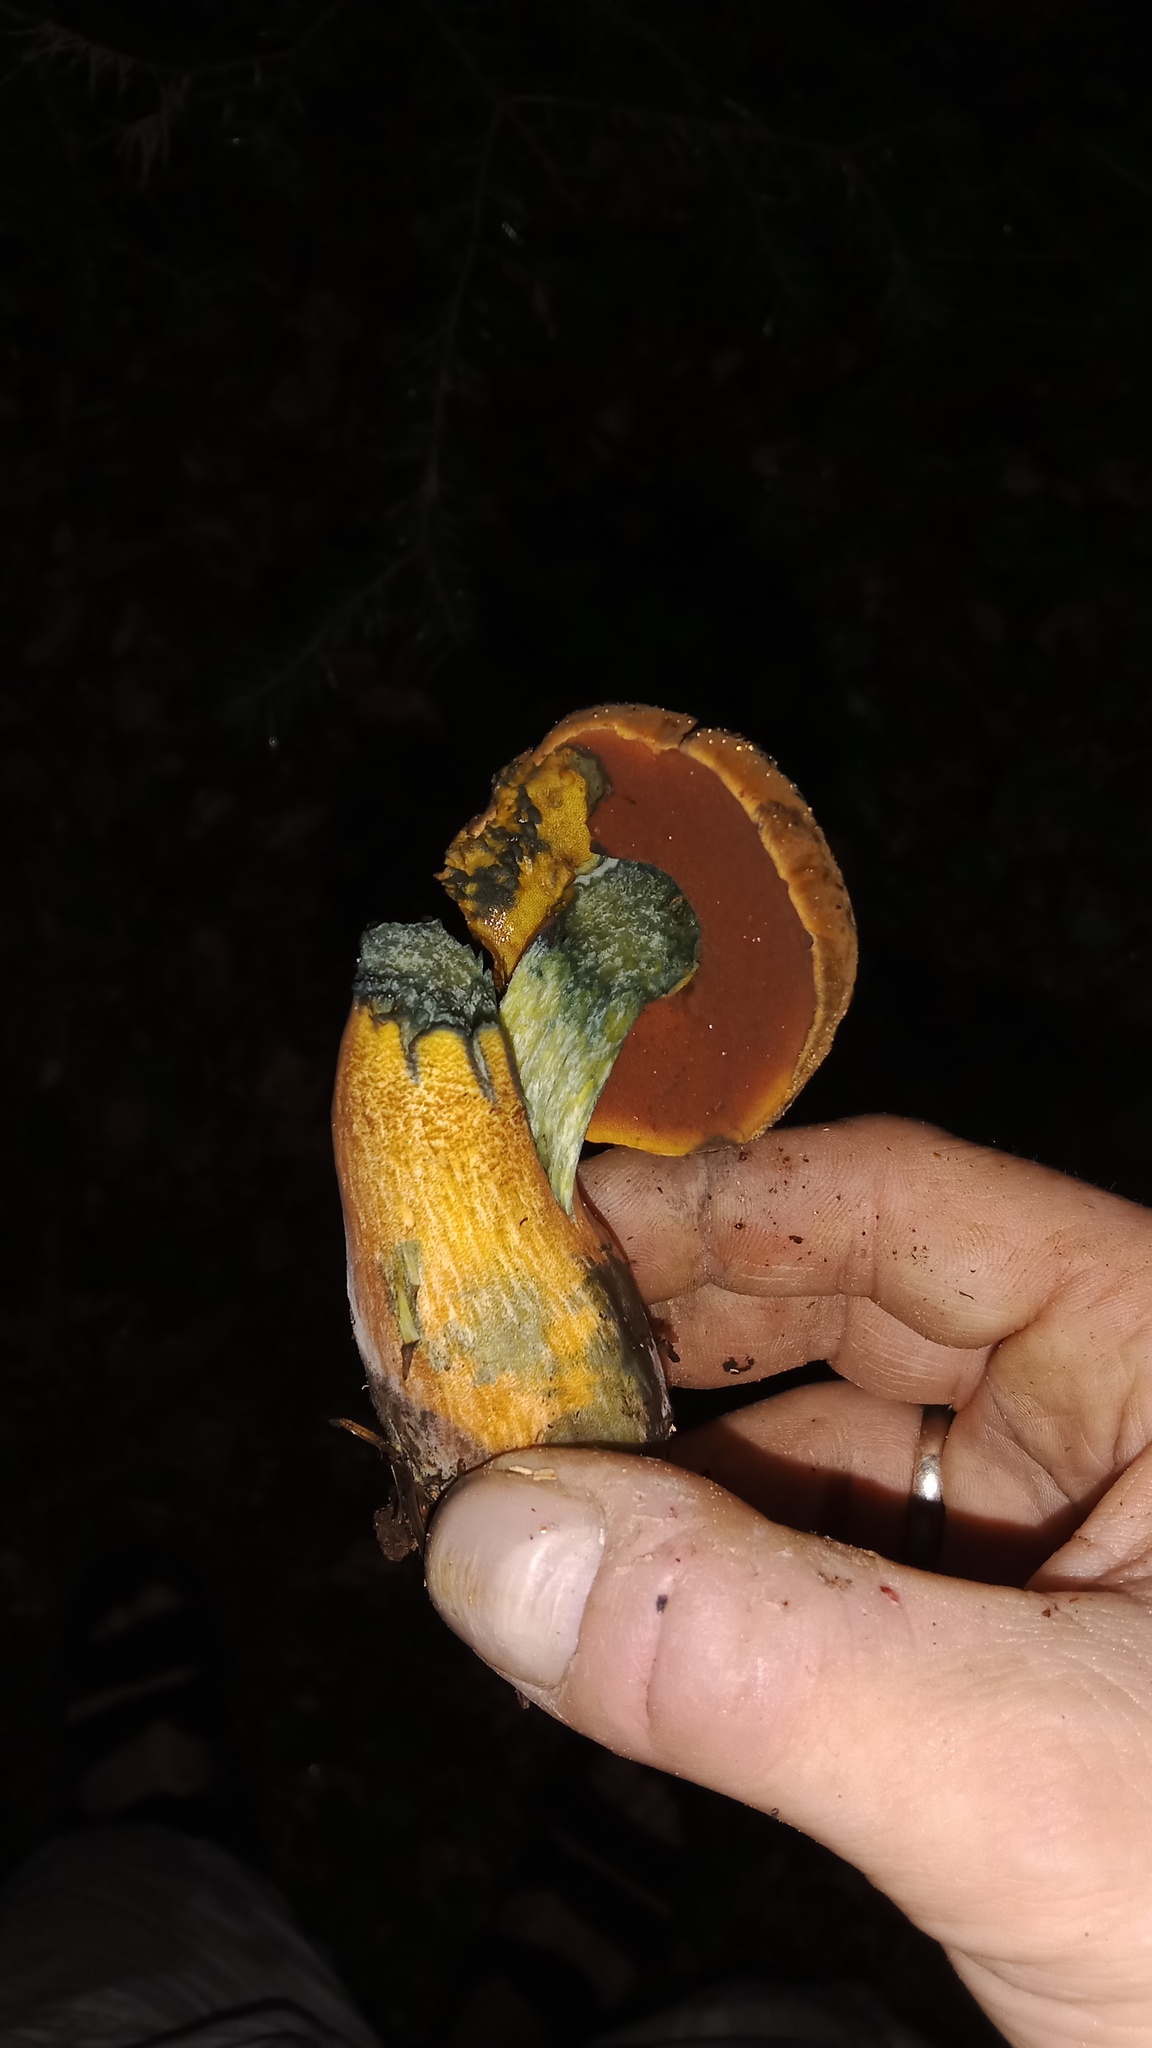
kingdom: Fungi
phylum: Basidiomycota
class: Agaricomycetes
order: Boletales
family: Boletaceae
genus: Neoboletus
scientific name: Neoboletus luridiformis
